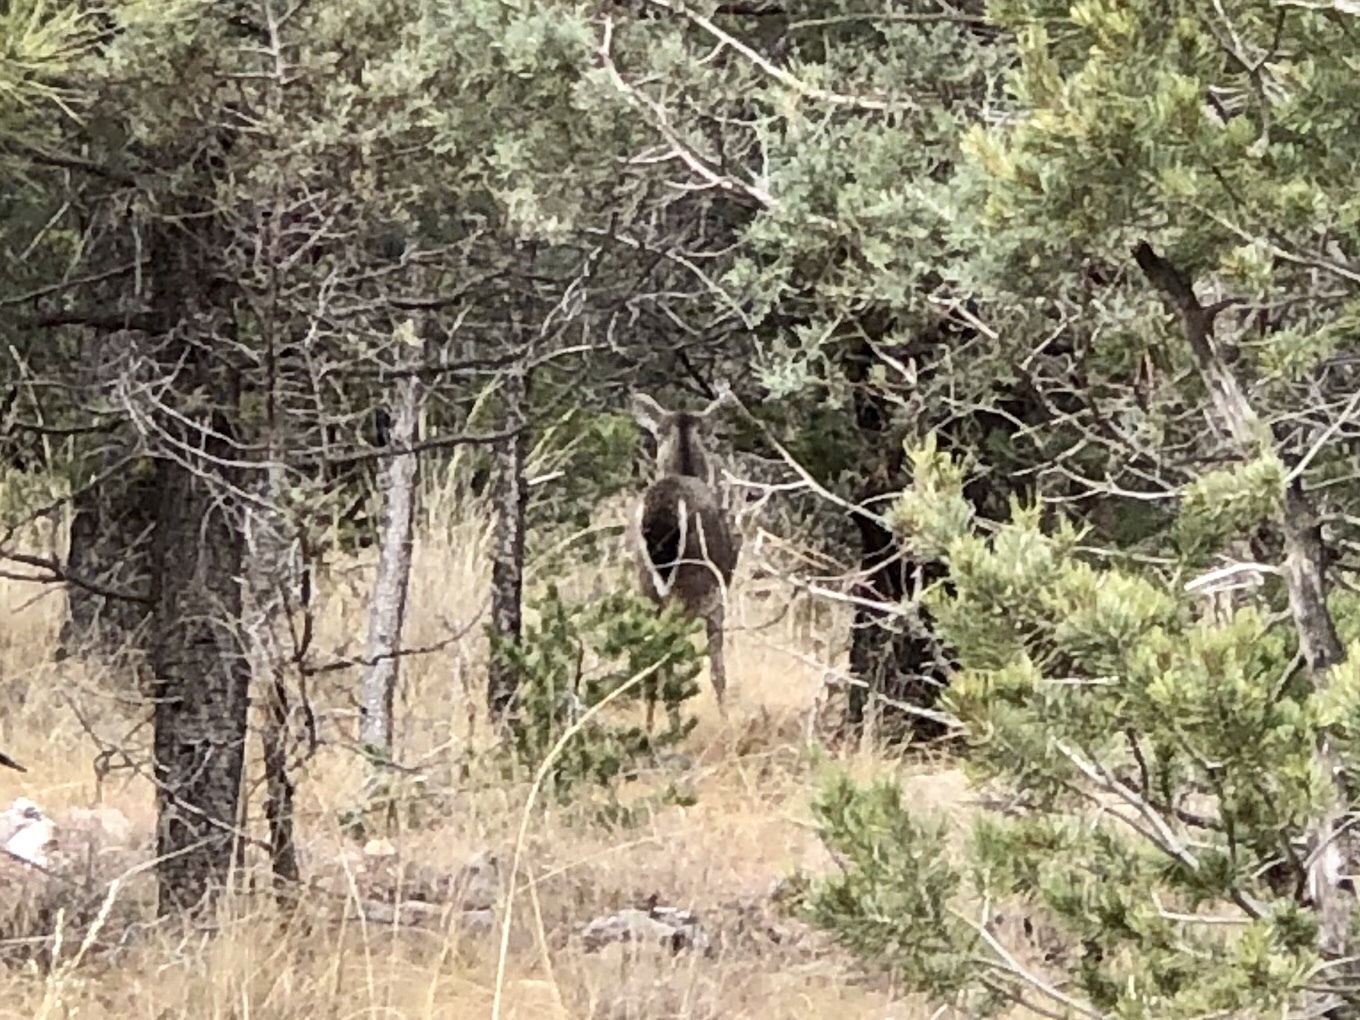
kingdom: Animalia
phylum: Chordata
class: Mammalia
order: Artiodactyla
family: Cervidae
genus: Odocoileus
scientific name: Odocoileus virginianus
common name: White-tailed deer
